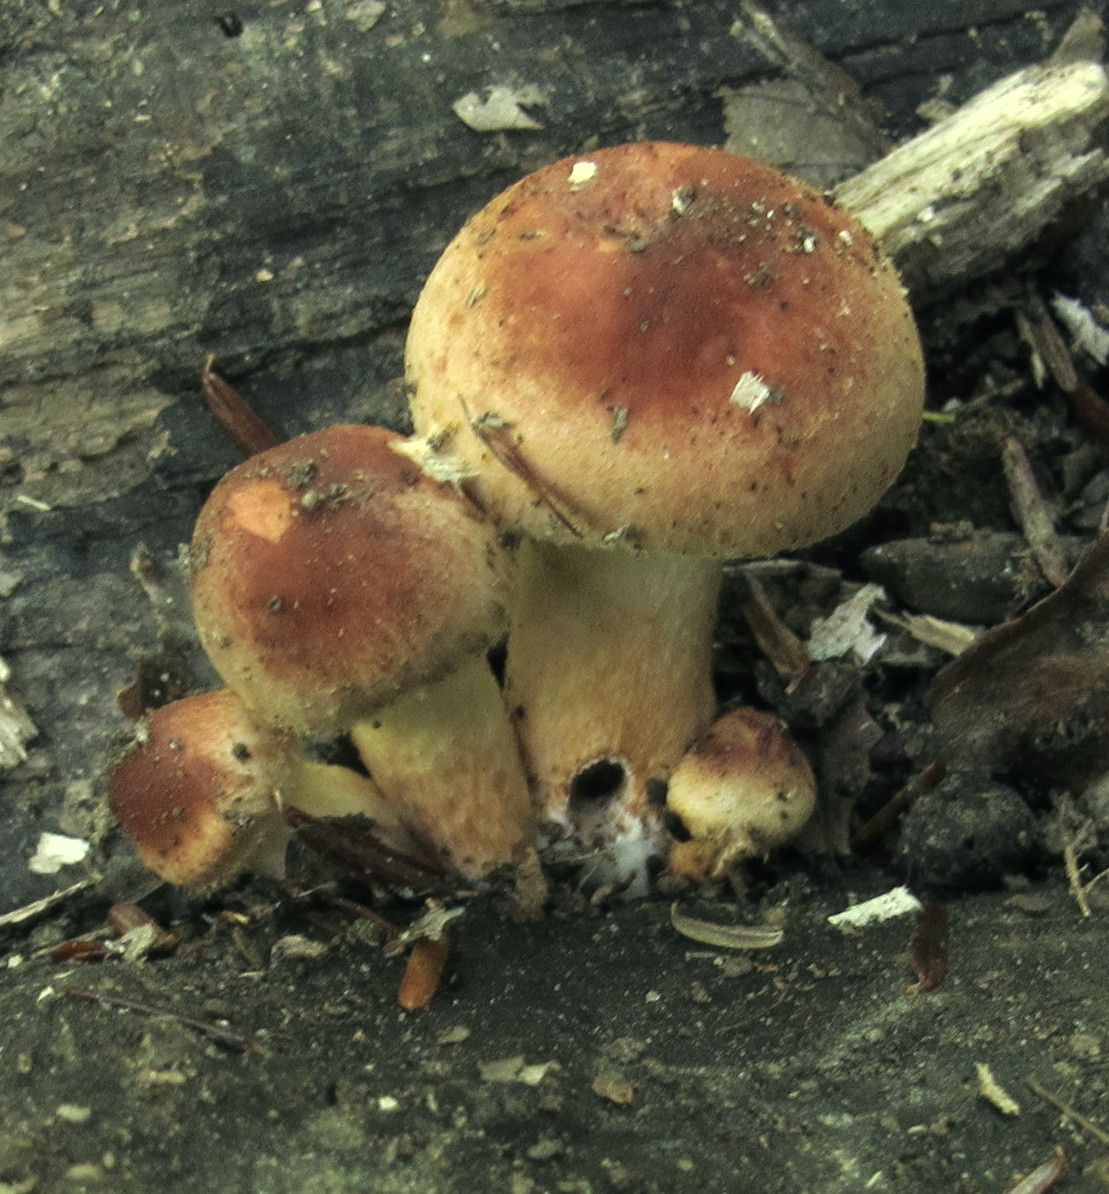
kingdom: Fungi
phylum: Basidiomycota
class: Agaricomycetes
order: Agaricales
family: Strophariaceae
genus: Hypholoma
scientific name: Hypholoma lateritium
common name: Brick caps
